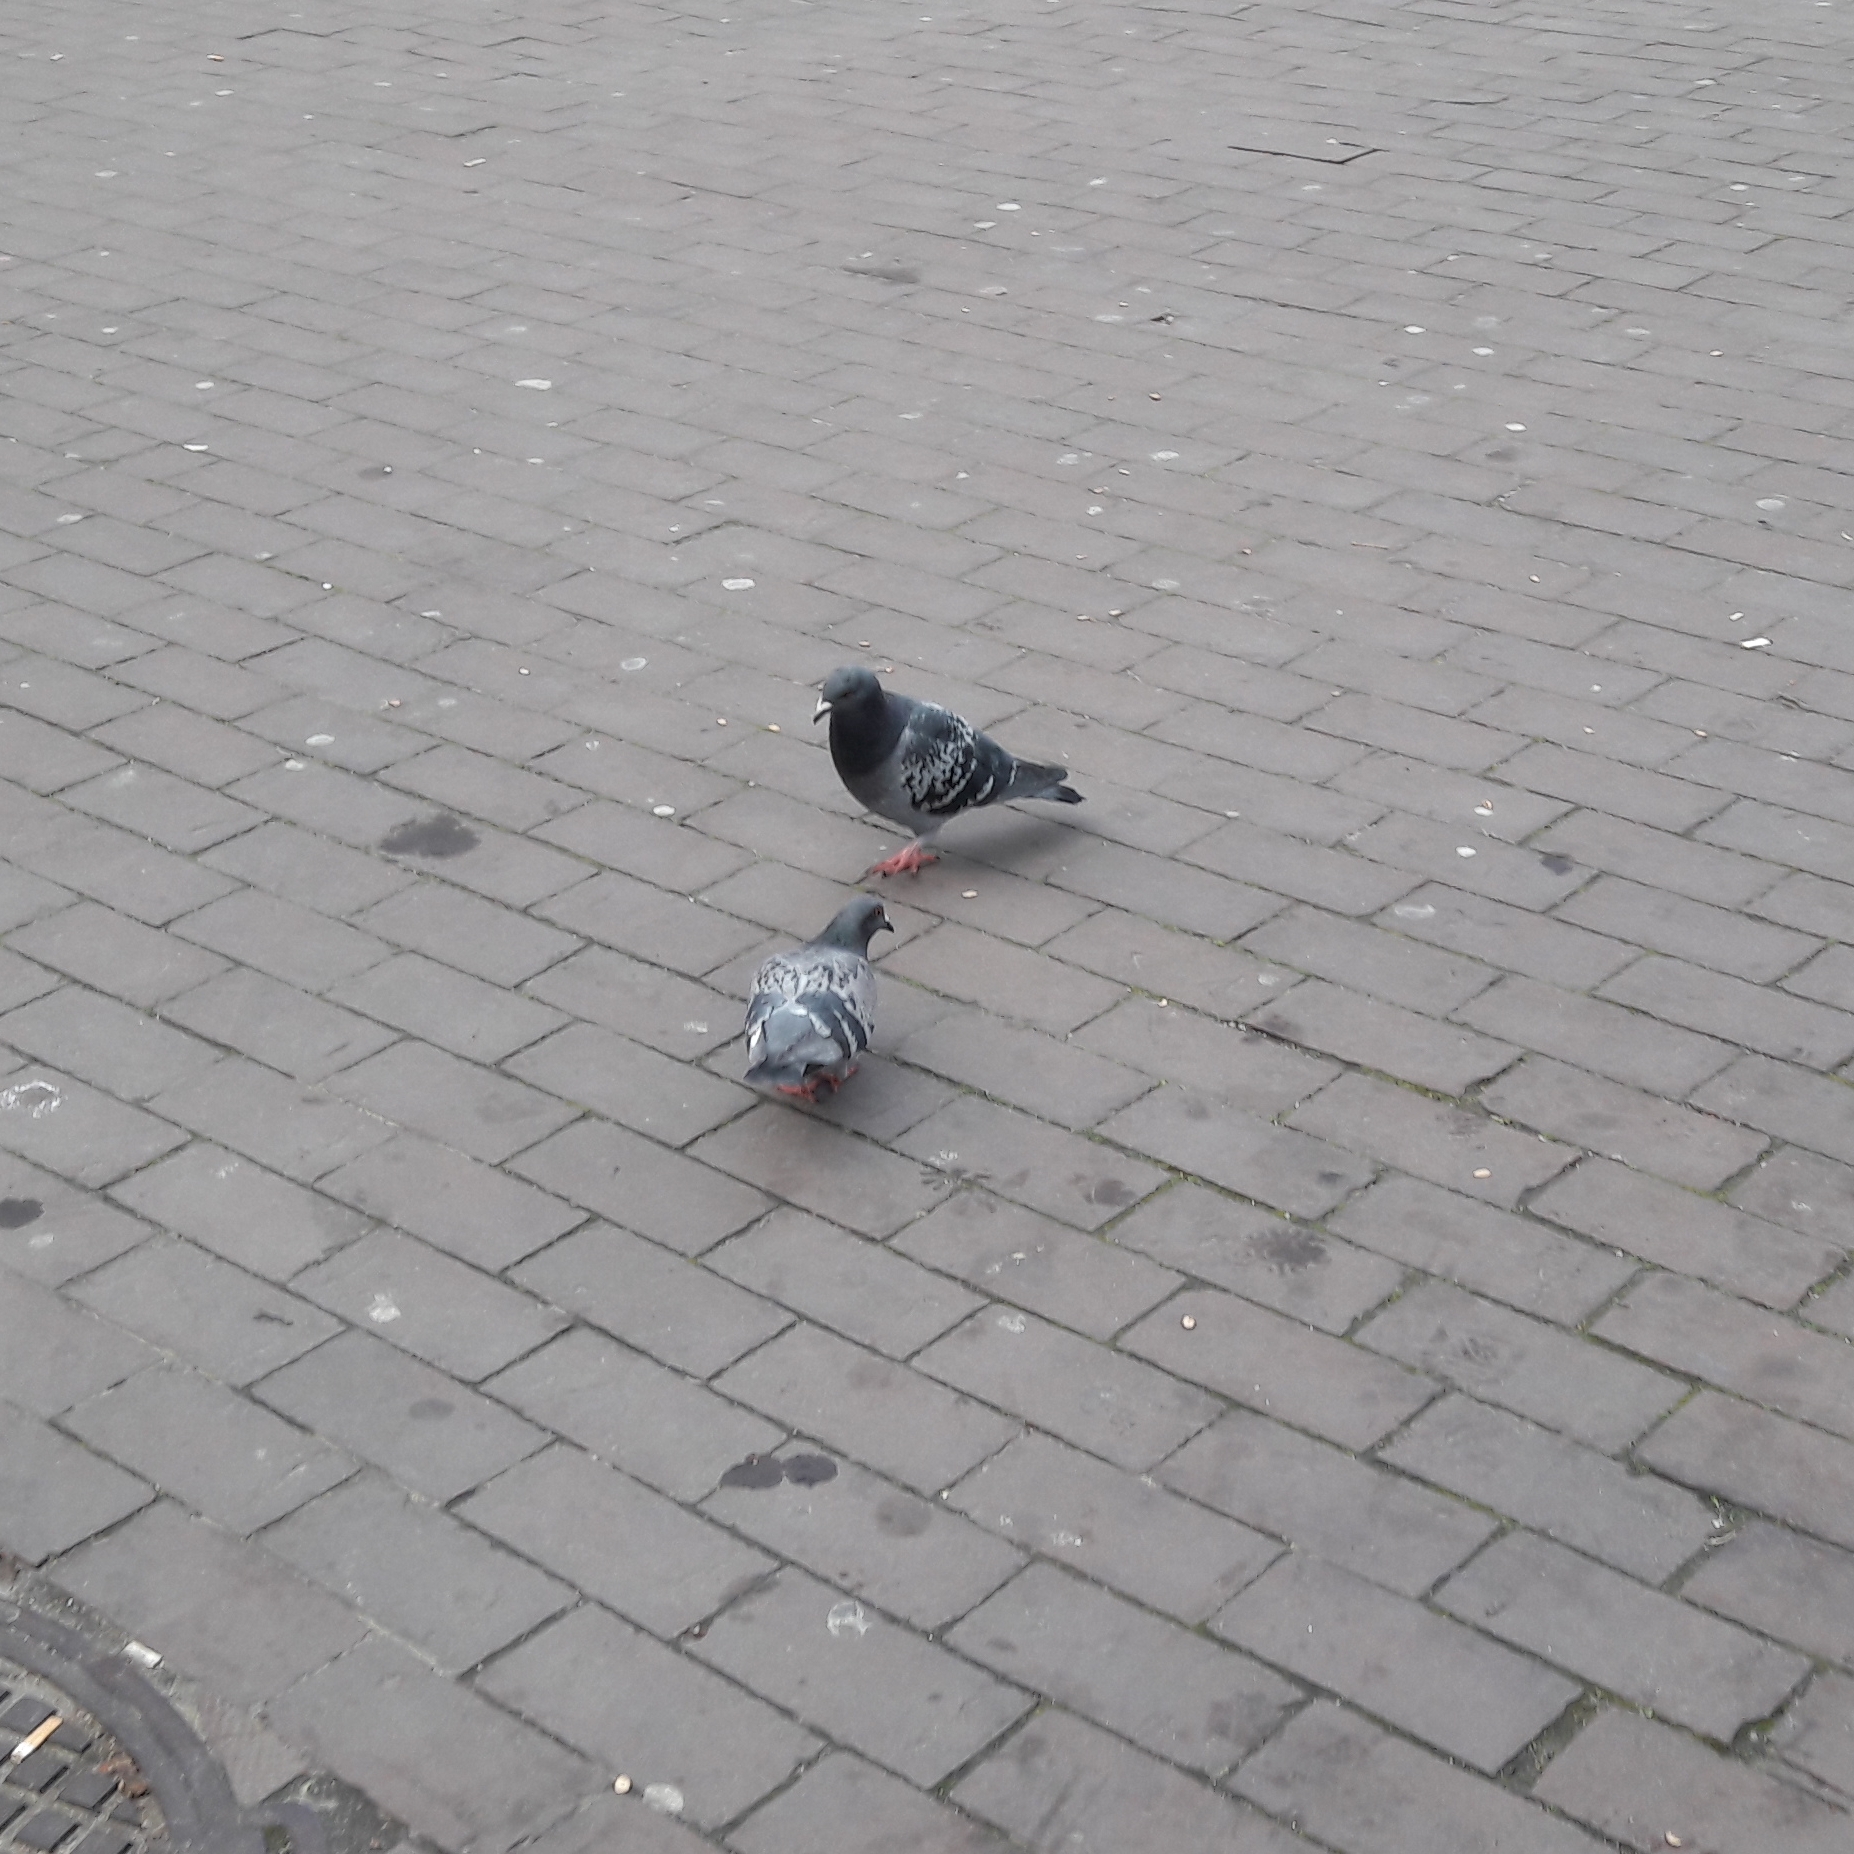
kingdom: Animalia
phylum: Chordata
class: Aves
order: Columbiformes
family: Columbidae
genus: Columba
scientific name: Columba livia
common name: Rock pigeon
